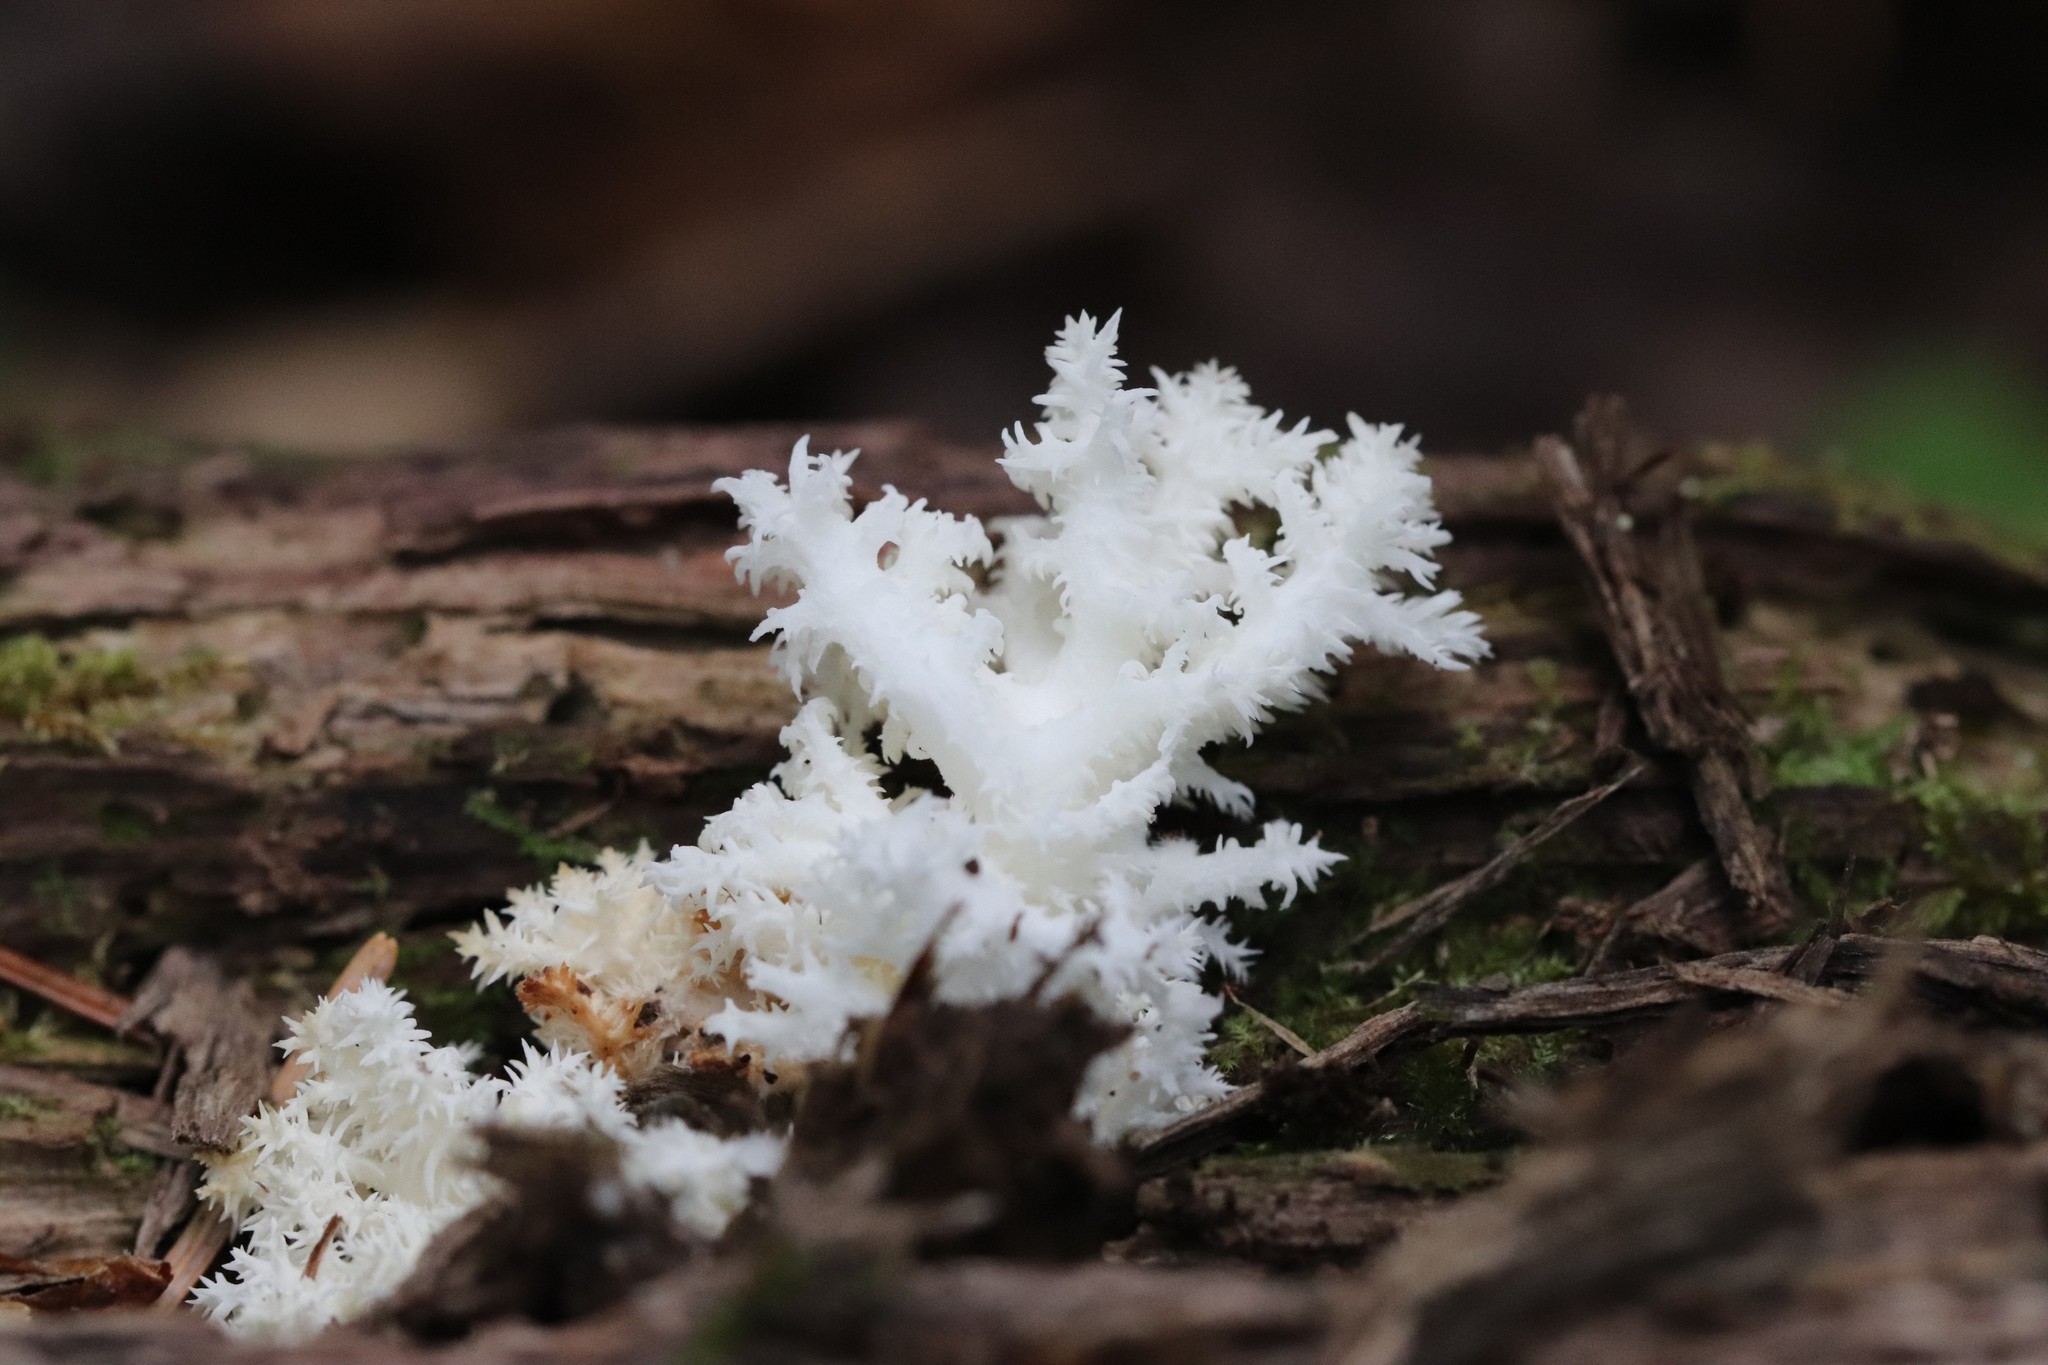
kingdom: Fungi
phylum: Basidiomycota
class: Agaricomycetes
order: Russulales
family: Hericiaceae
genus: Hericium
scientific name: Hericium coralloides
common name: Coral tooth
